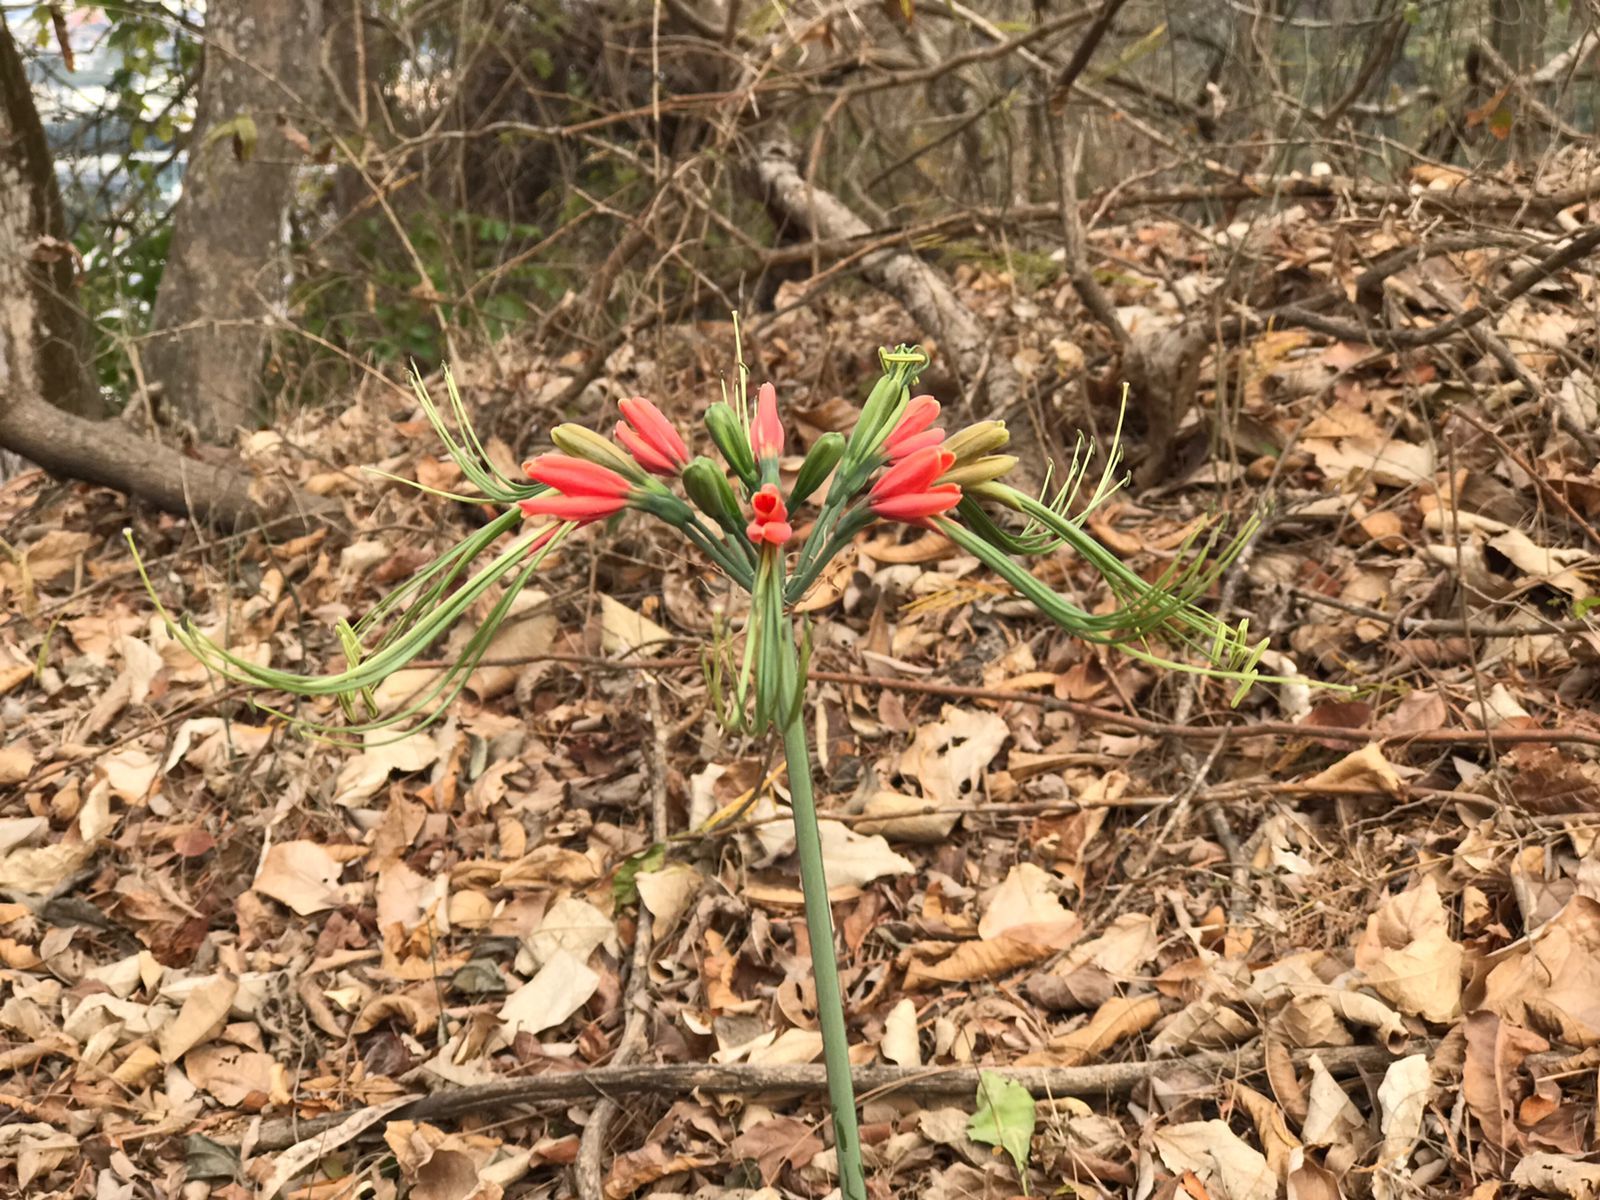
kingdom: Plantae
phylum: Tracheophyta
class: Liliopsida
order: Asparagales
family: Amaryllidaceae
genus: Eucrosia
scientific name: Eucrosia eucrosioides
